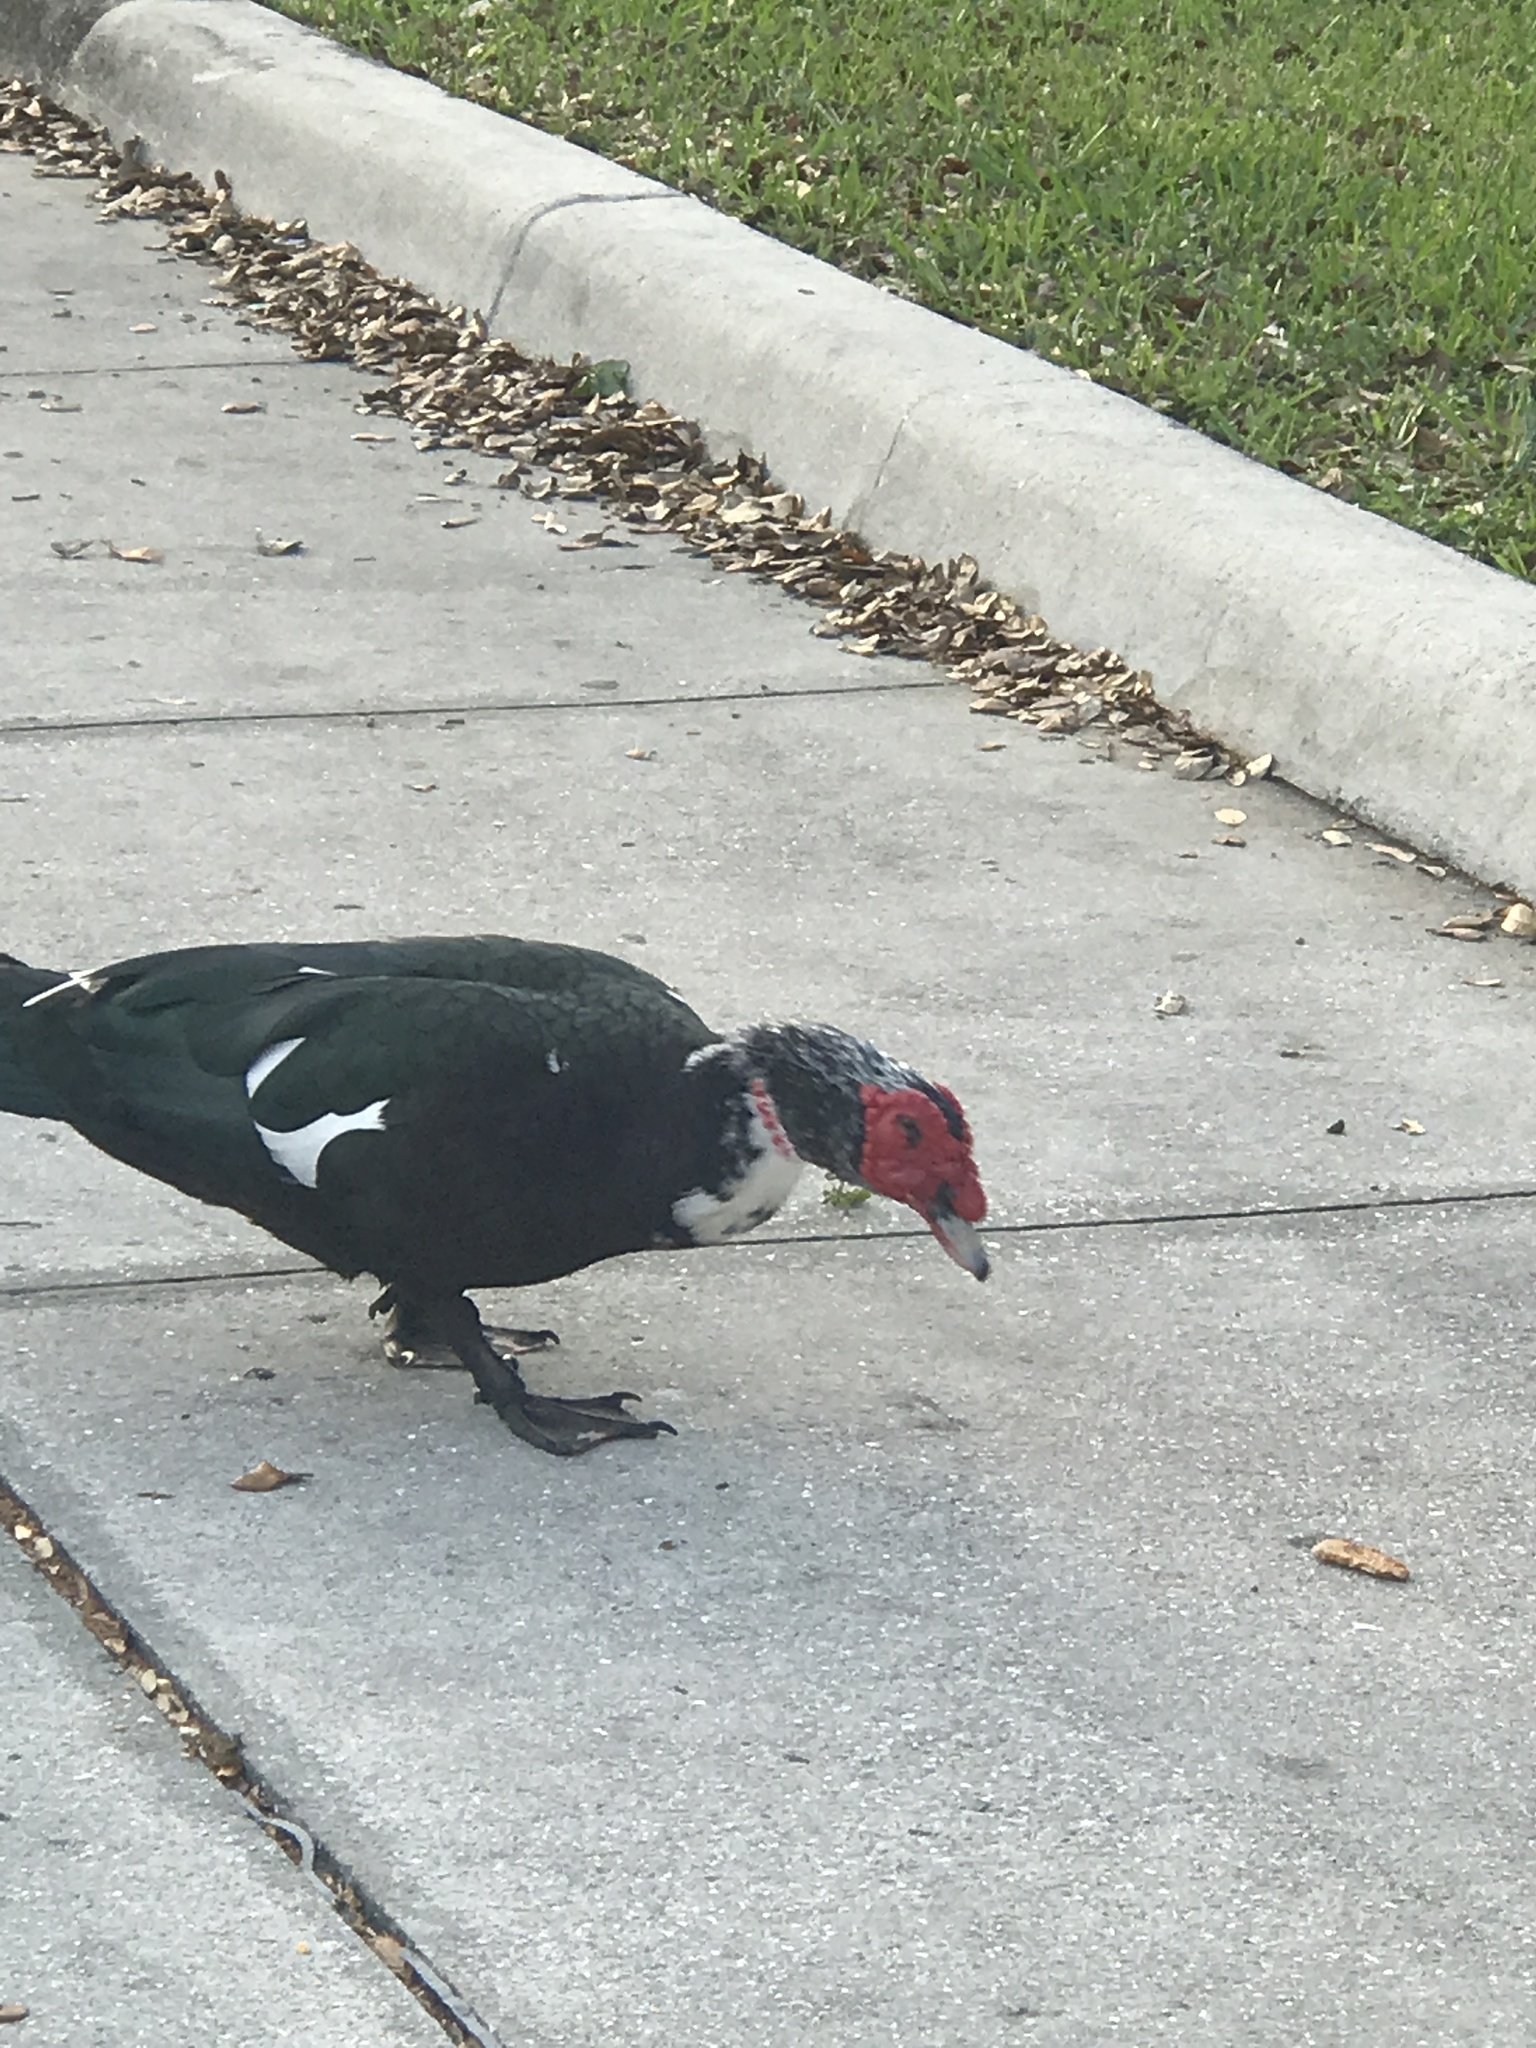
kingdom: Animalia
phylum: Chordata
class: Aves
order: Anseriformes
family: Anatidae
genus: Cairina
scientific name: Cairina moschata
